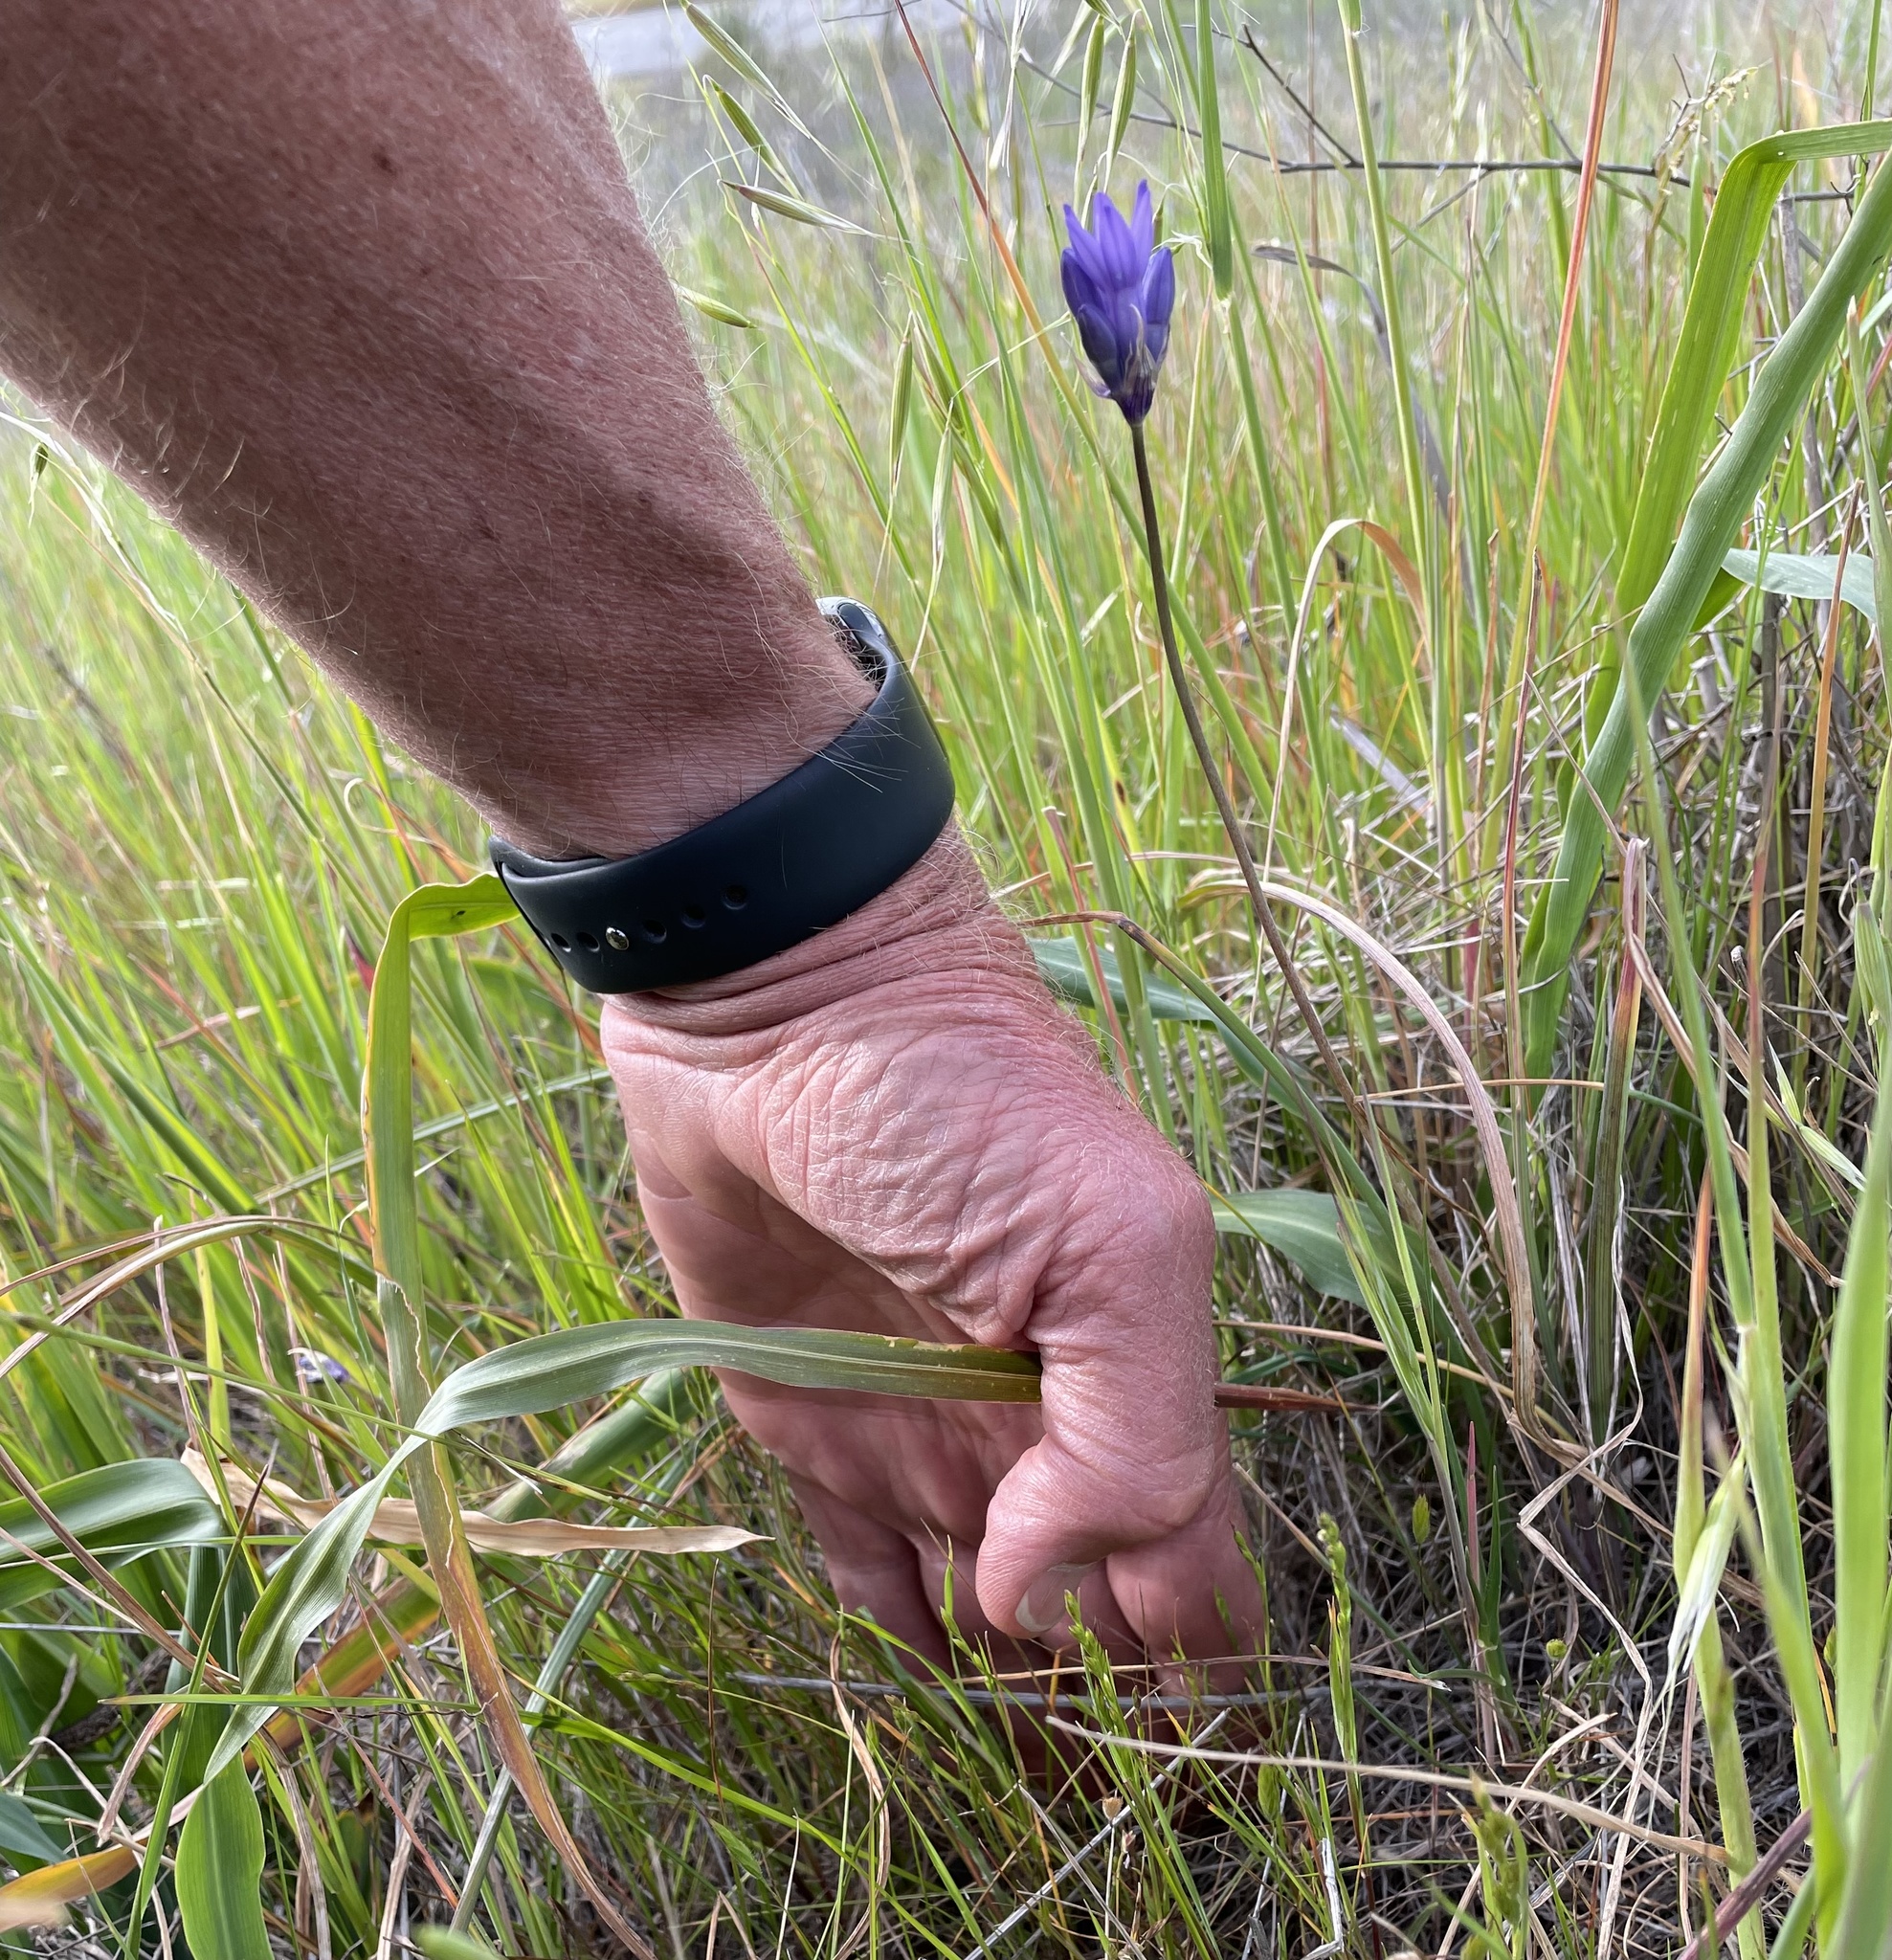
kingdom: Plantae
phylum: Tracheophyta
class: Liliopsida
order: Asparagales
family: Asparagaceae
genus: Dipterostemon
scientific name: Dipterostemon capitatus
